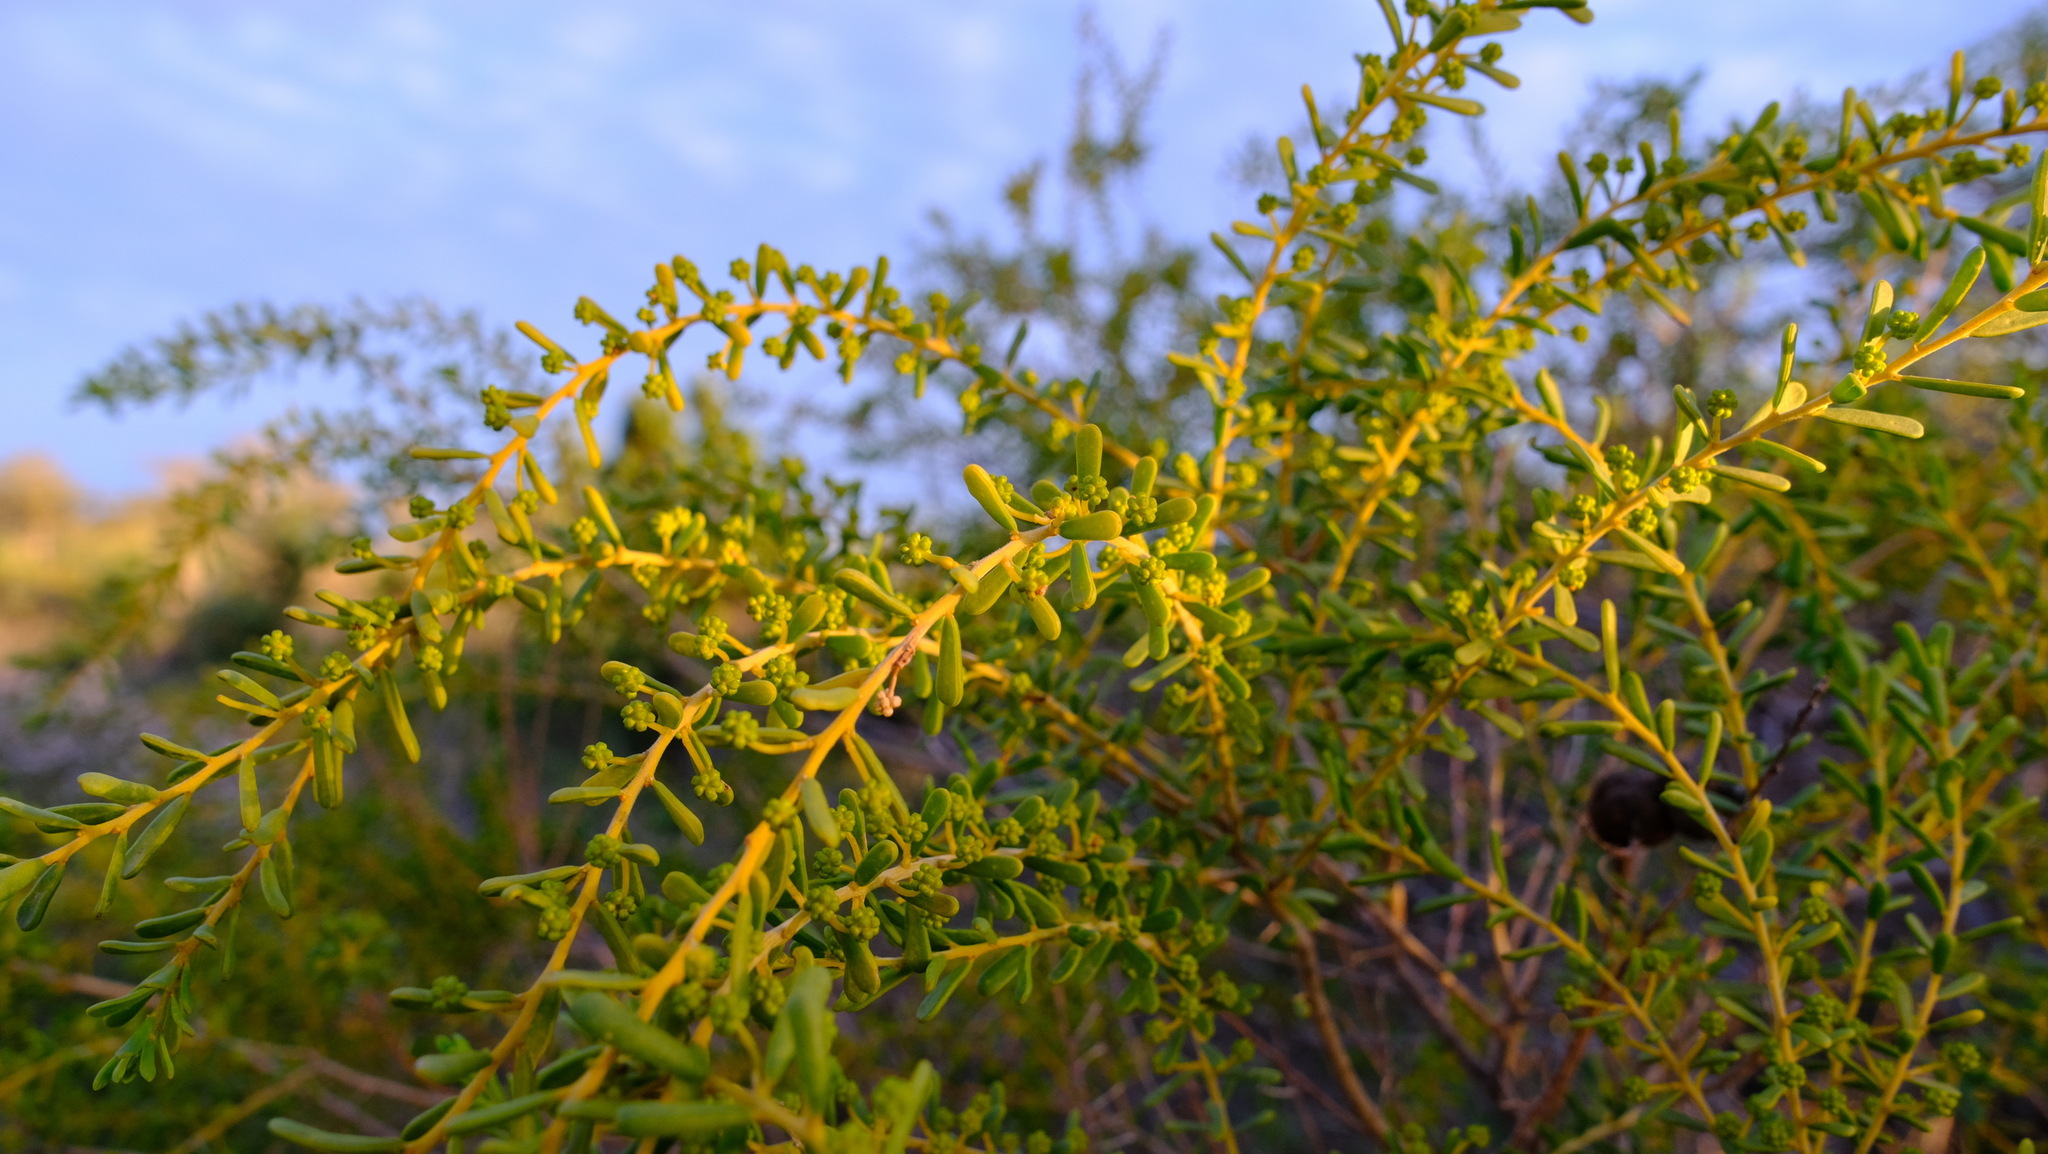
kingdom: Plantae
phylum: Tracheophyta
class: Magnoliopsida
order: Fabales
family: Fabaceae
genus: Acacia
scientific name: Acacia spathulifolia
